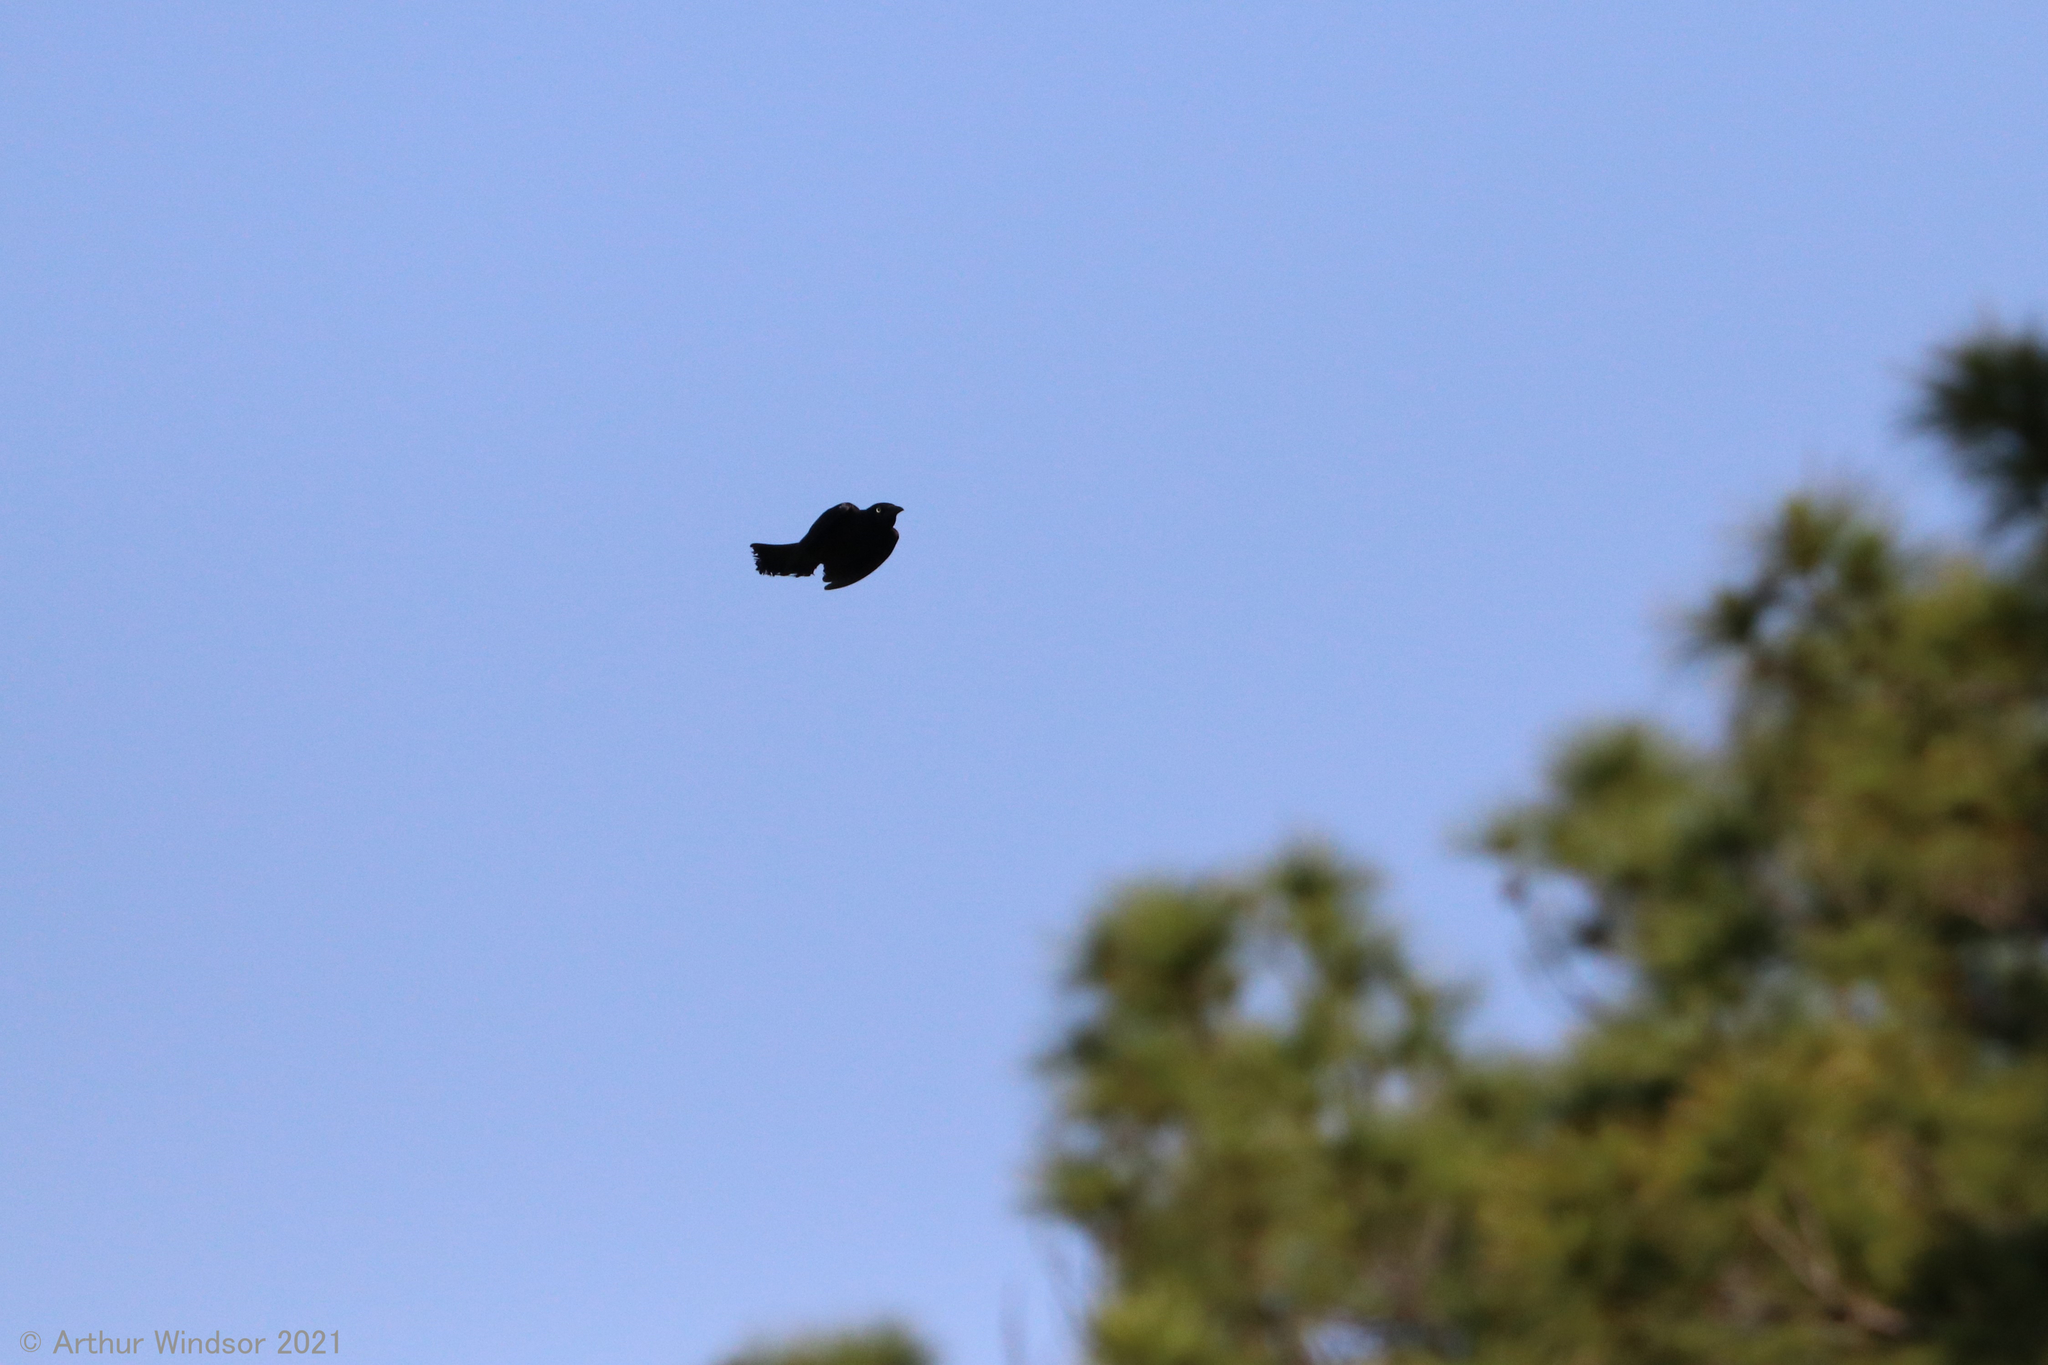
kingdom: Animalia
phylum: Chordata
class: Aves
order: Passeriformes
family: Icteridae
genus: Quiscalus
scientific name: Quiscalus quiscula
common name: Common grackle
